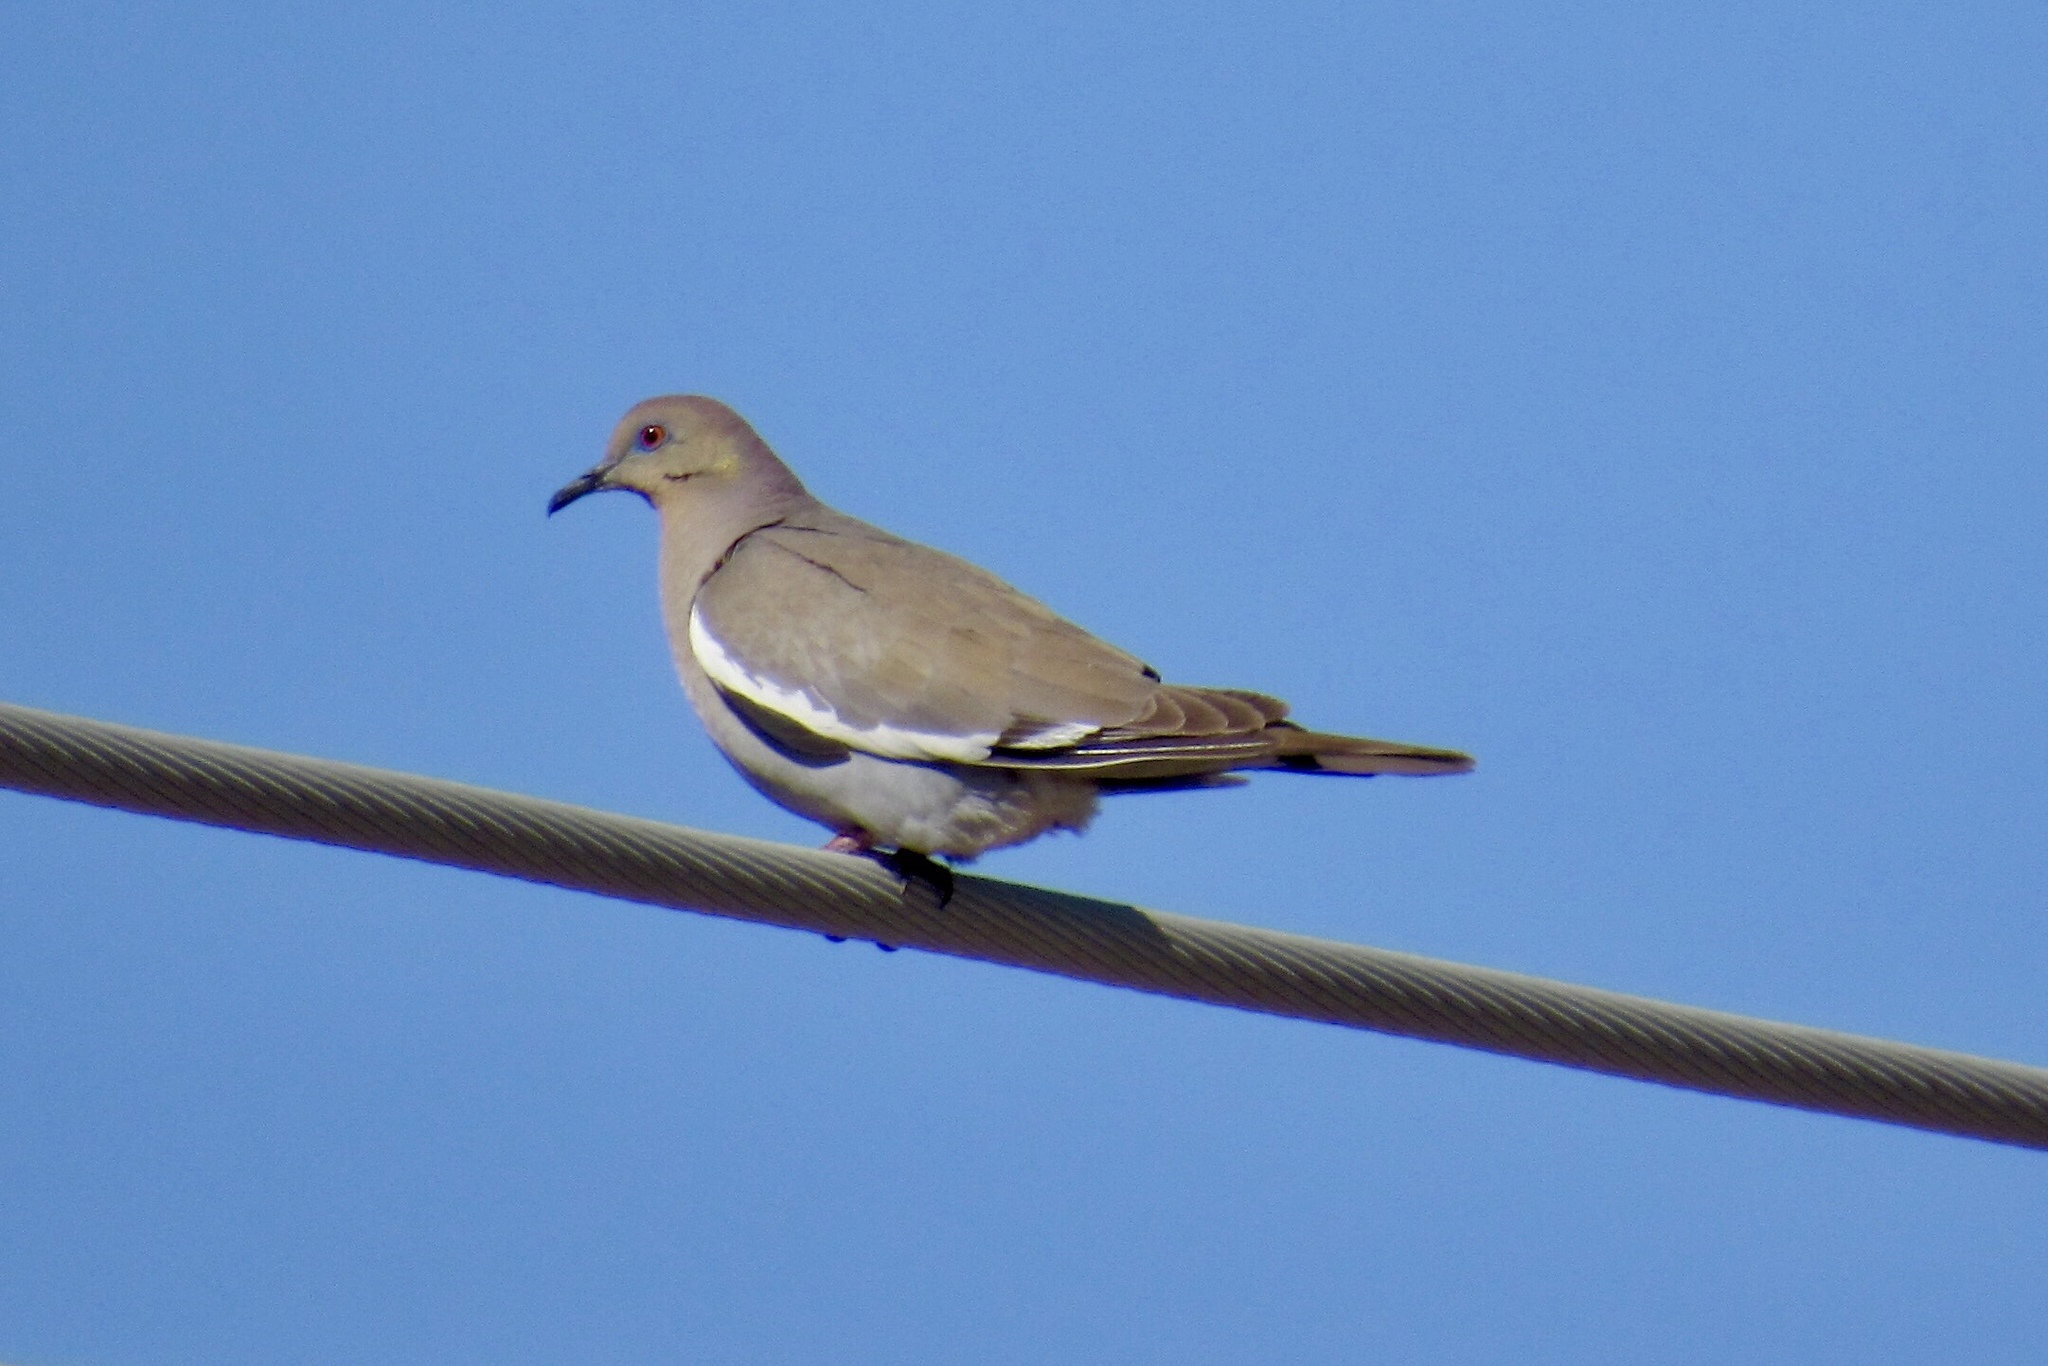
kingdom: Animalia
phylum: Chordata
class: Aves
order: Columbiformes
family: Columbidae
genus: Zenaida
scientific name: Zenaida asiatica
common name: White-winged dove
